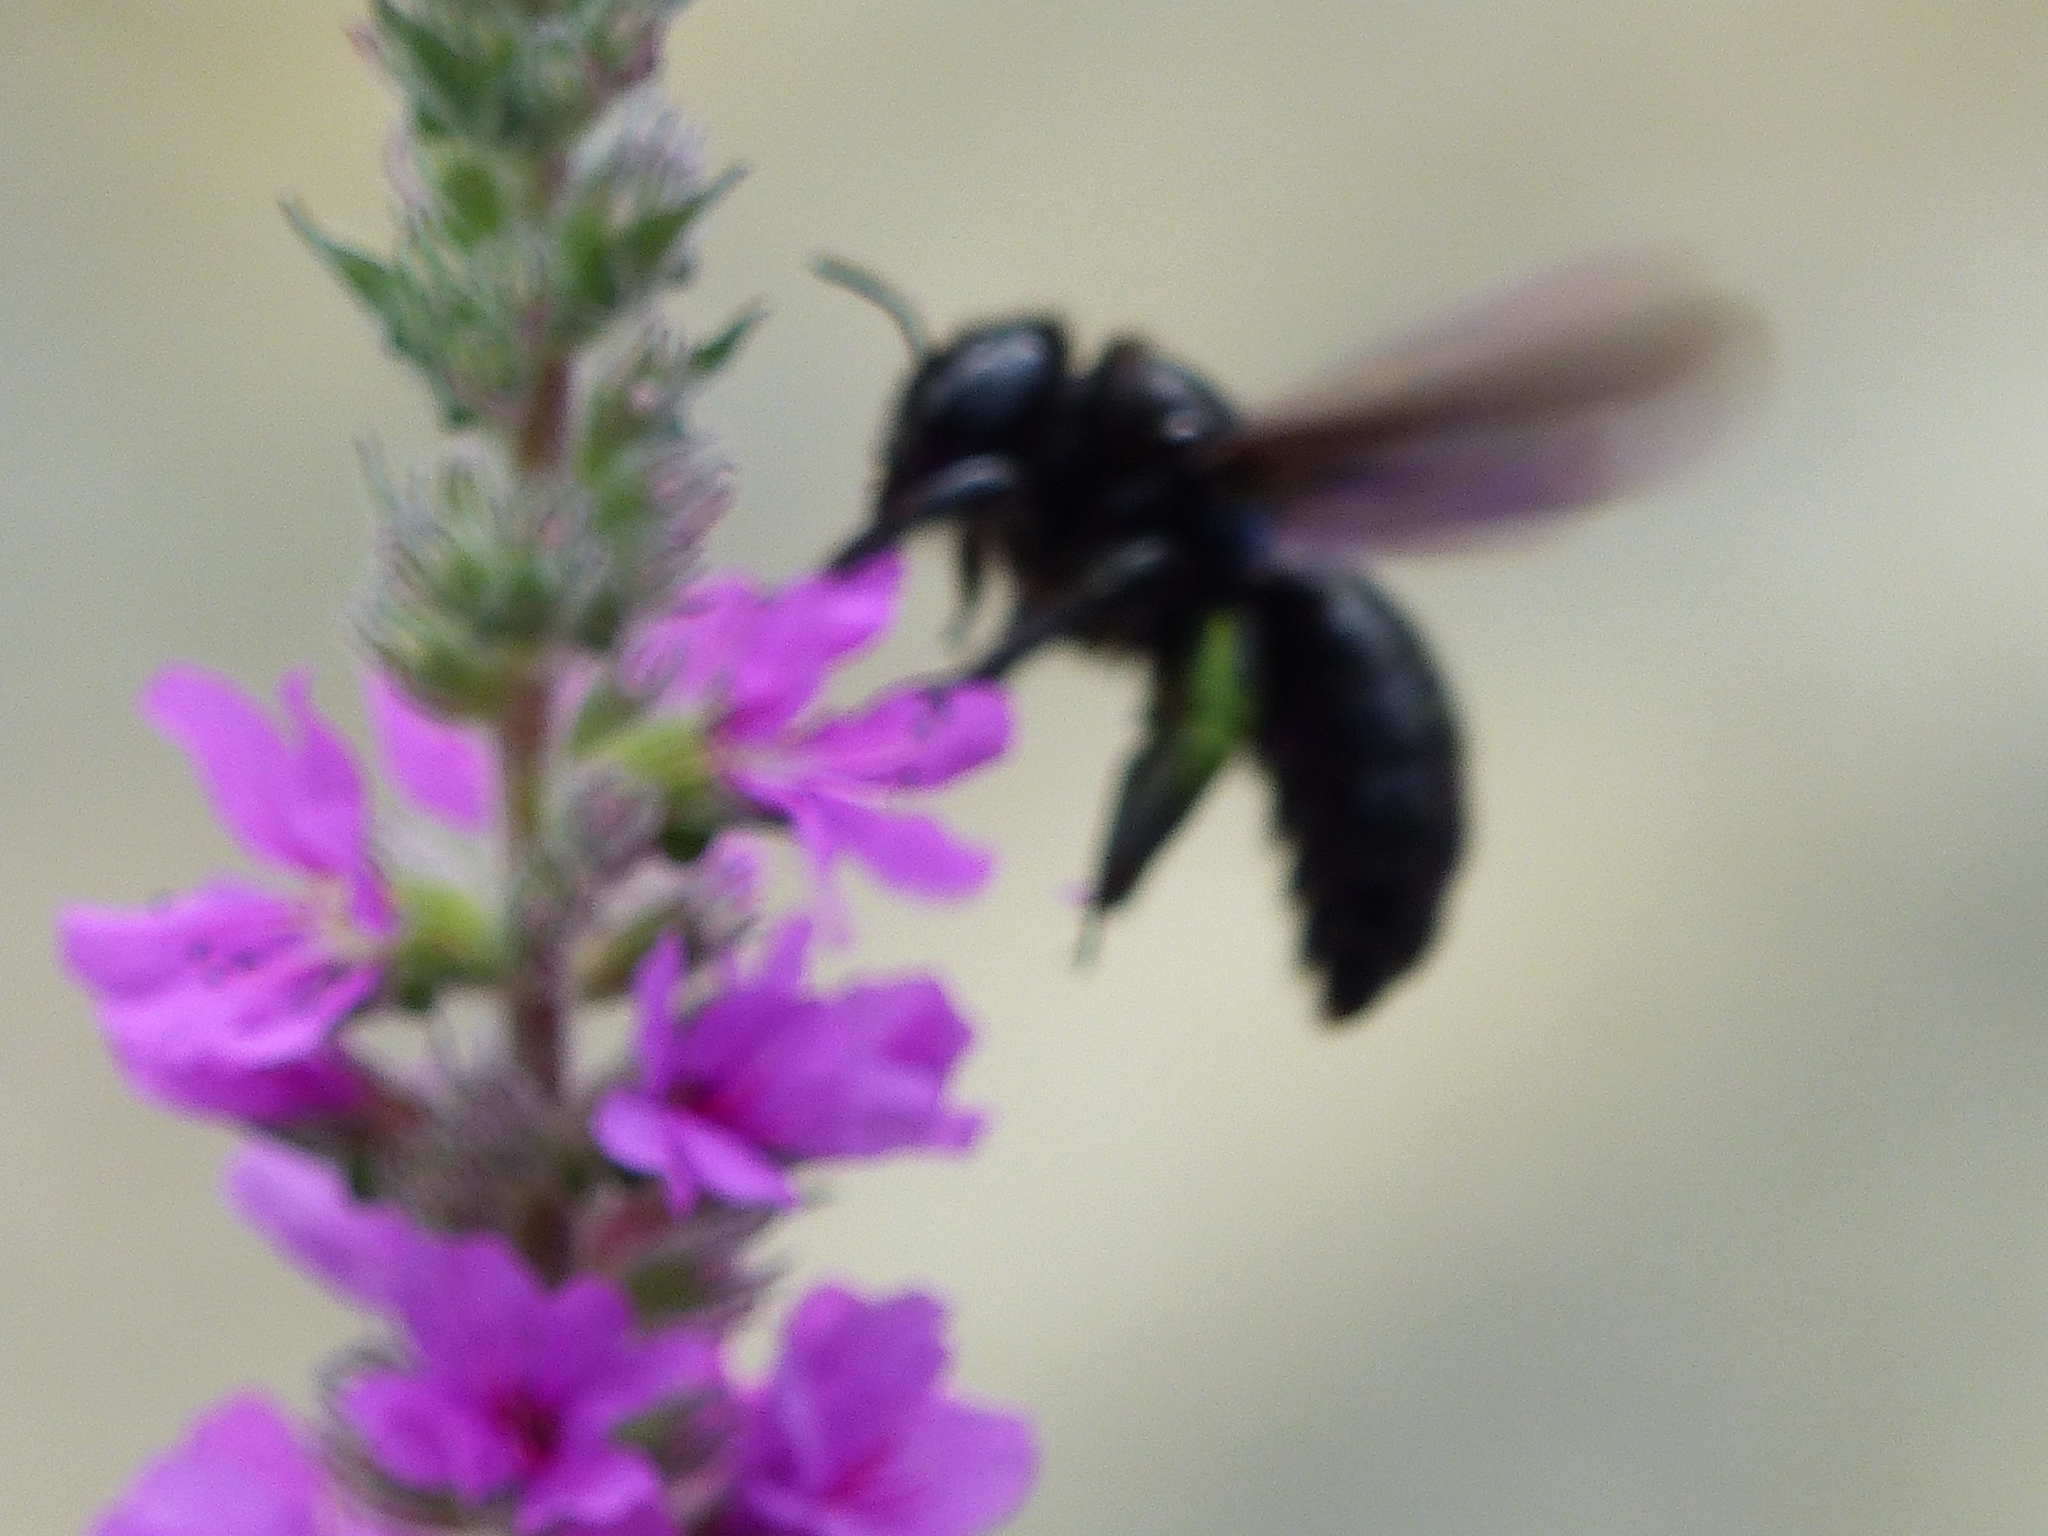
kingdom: Animalia
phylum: Arthropoda
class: Insecta
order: Hymenoptera
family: Apidae
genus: Xylocopa
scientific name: Xylocopa violacea
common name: Violet carpenter bee
